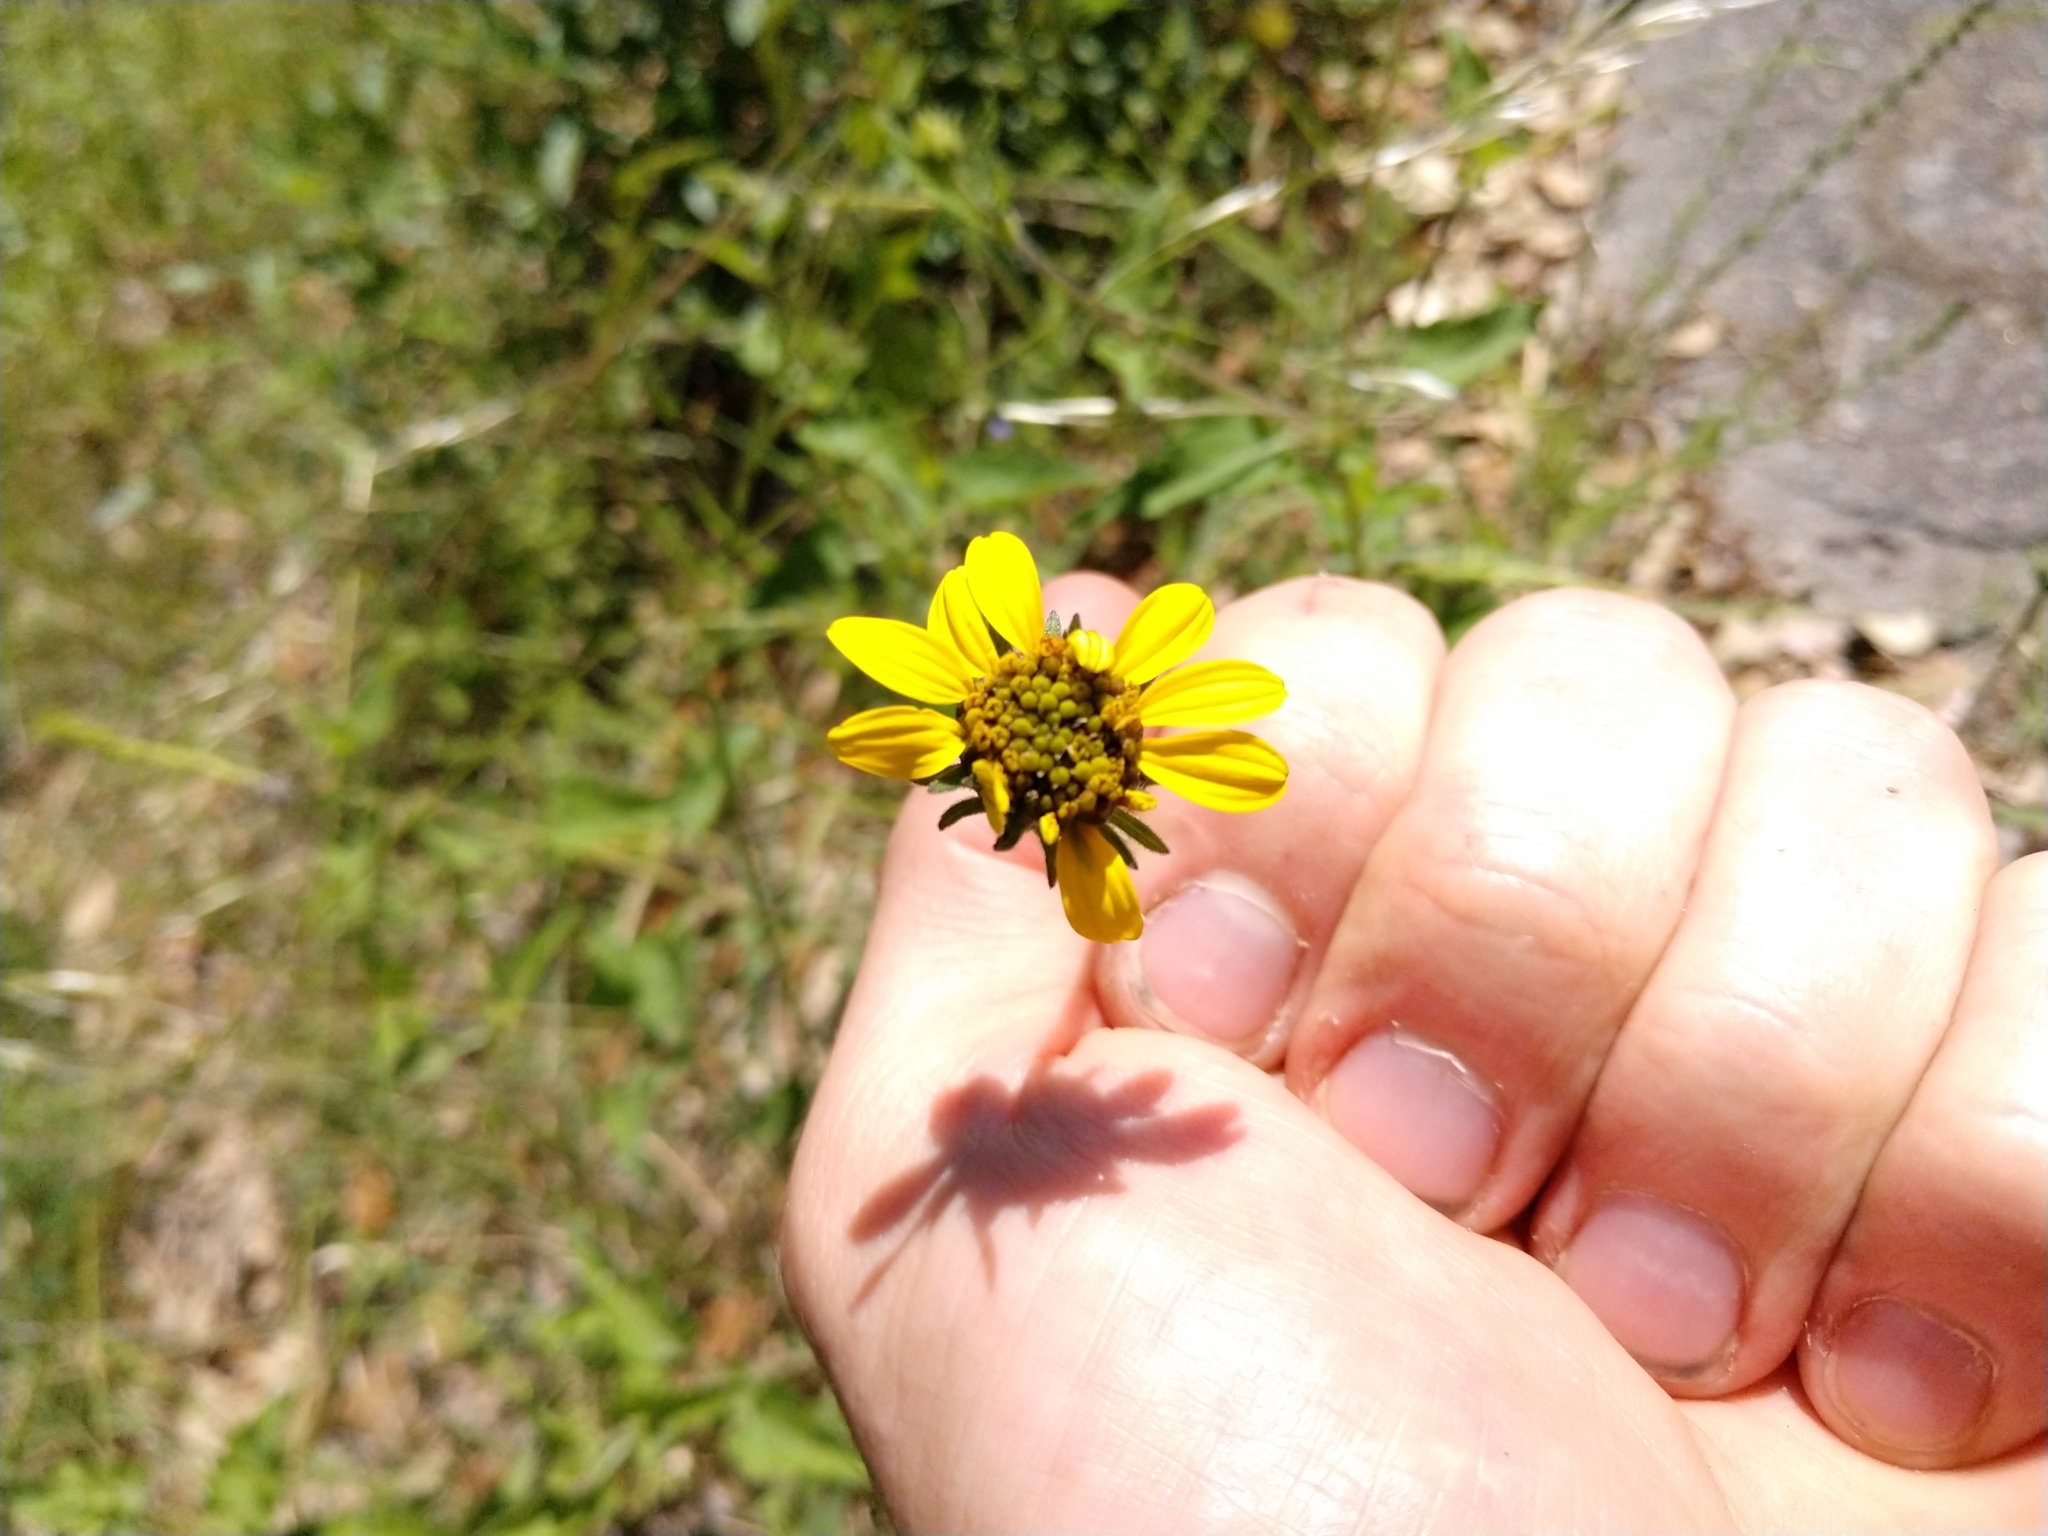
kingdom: Plantae
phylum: Tracheophyta
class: Magnoliopsida
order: Asterales
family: Asteraceae
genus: Simsia
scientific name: Simsia calva
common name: Awnless bush-sunflower
